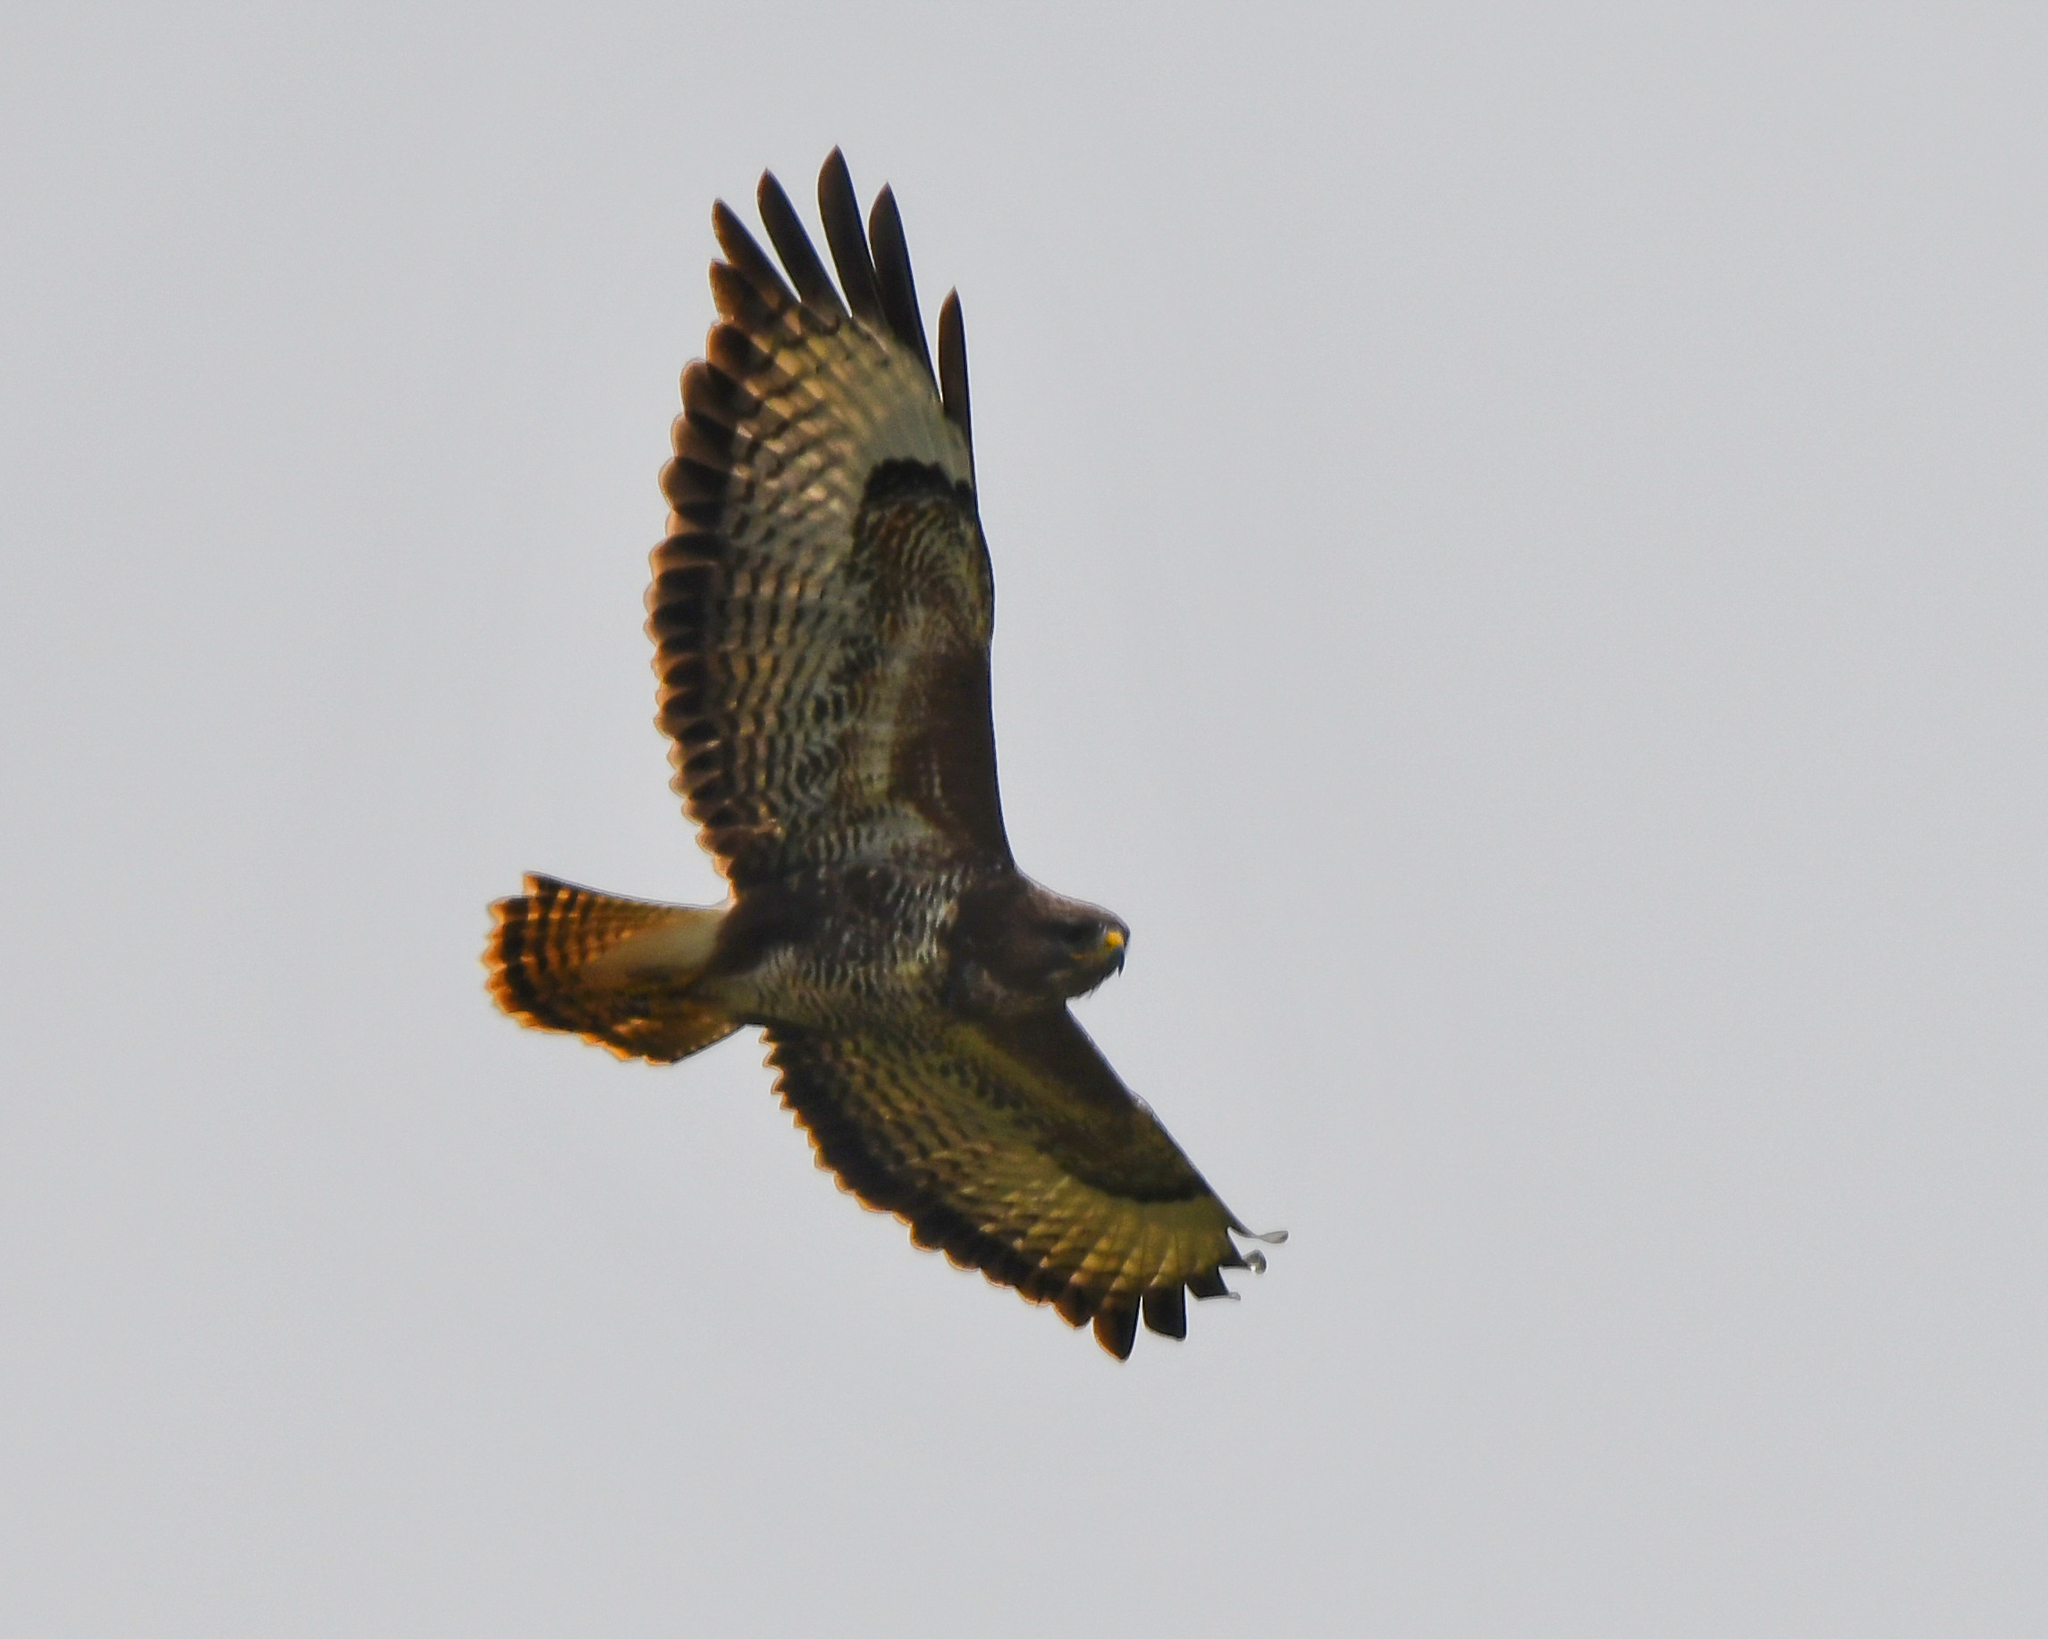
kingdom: Animalia
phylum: Chordata
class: Aves
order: Accipitriformes
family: Accipitridae
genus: Buteo
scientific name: Buteo buteo
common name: Common buzzard
